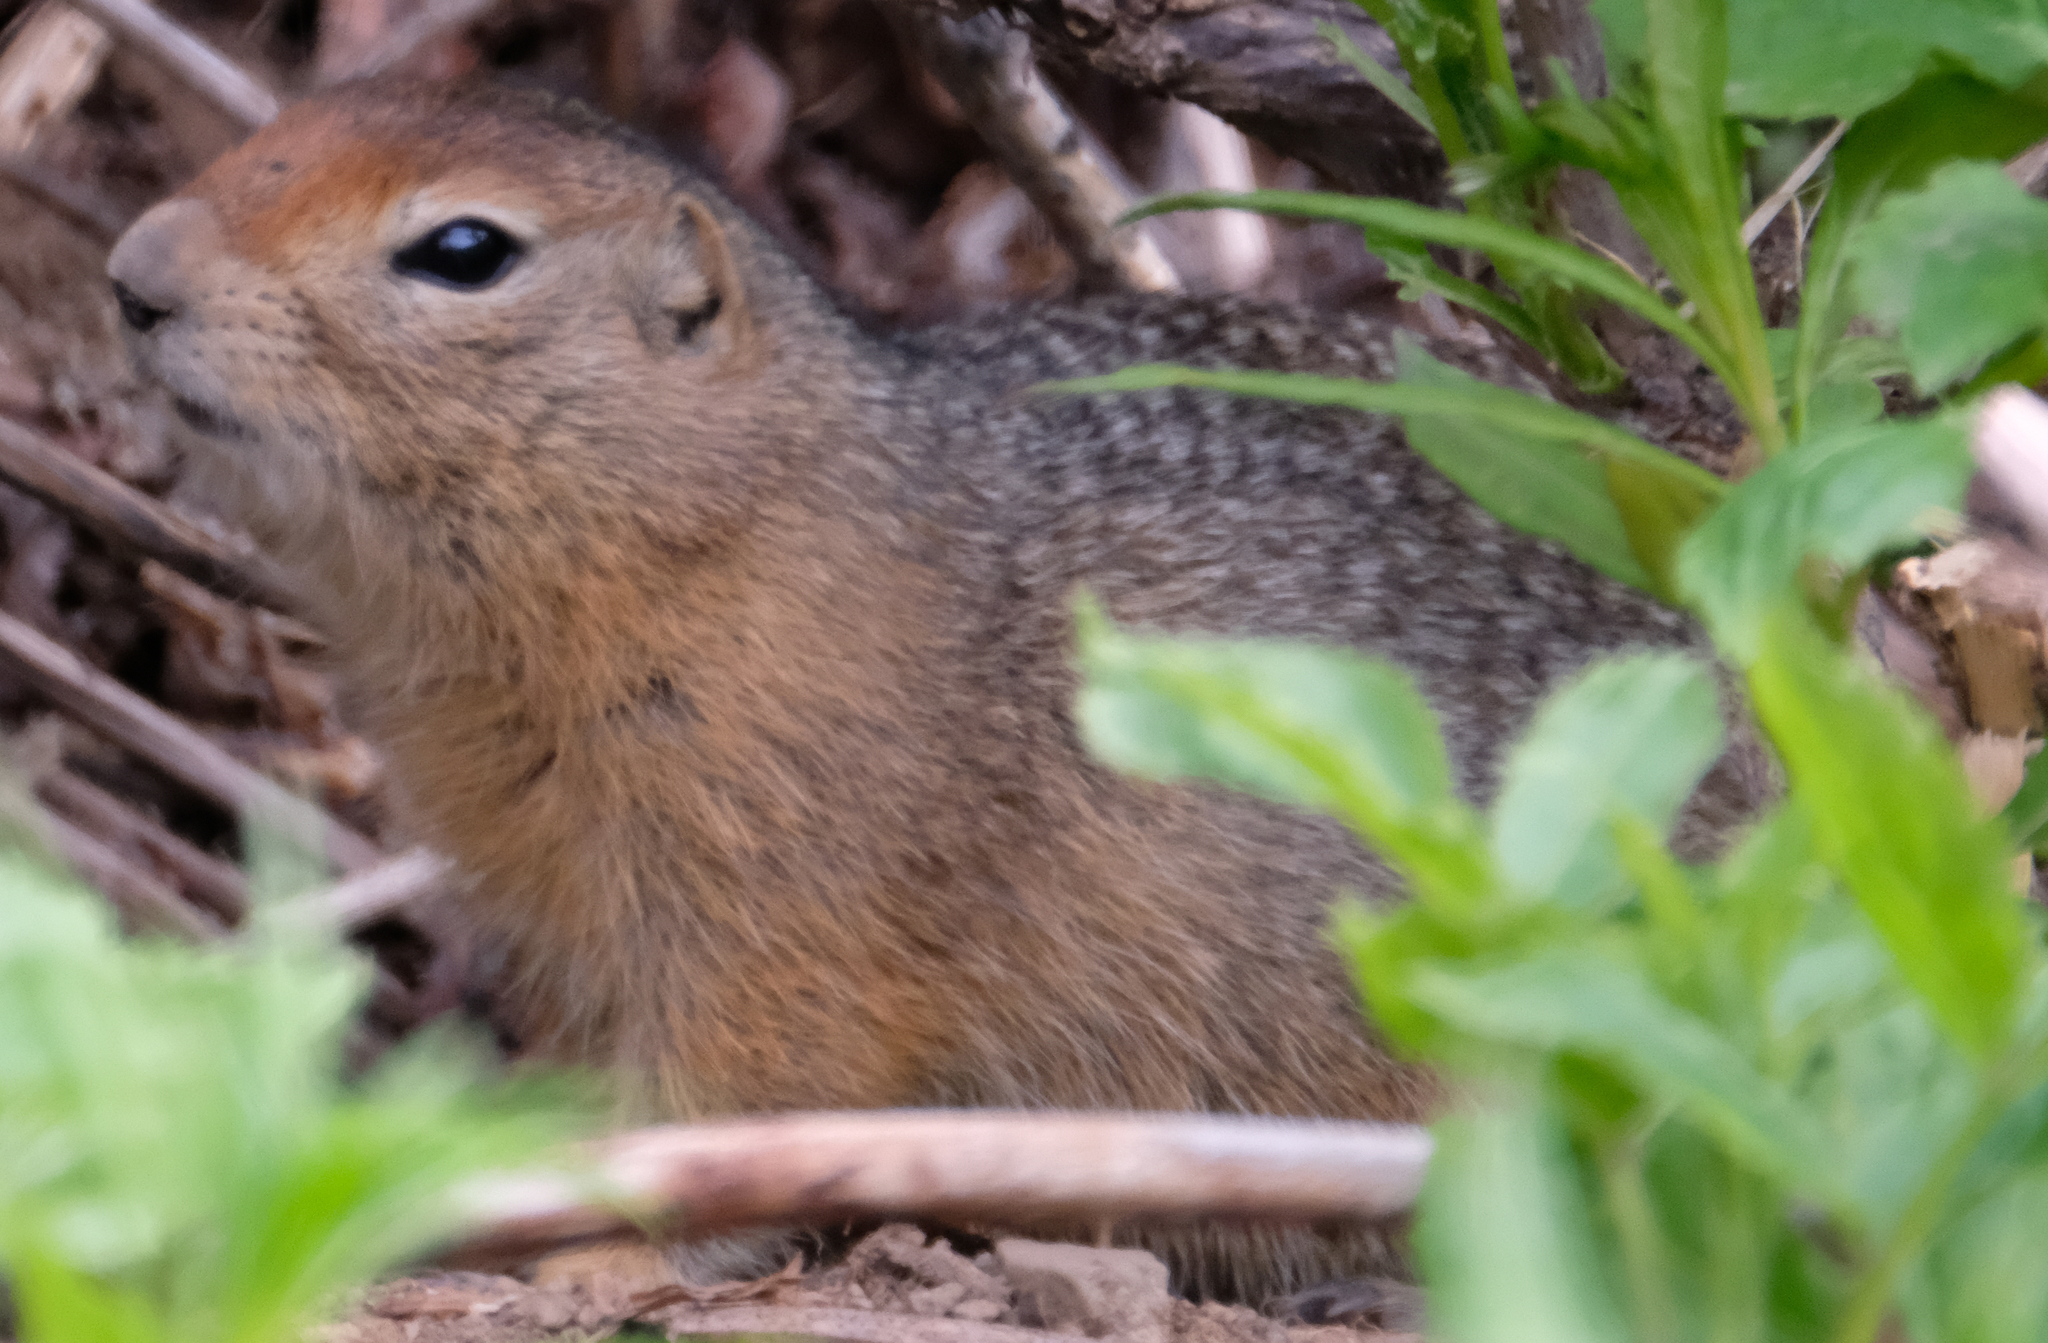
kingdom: Animalia
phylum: Chordata
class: Mammalia
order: Rodentia
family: Sciuridae
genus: Urocitellus
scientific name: Urocitellus parryii
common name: Arctic ground squirrel
